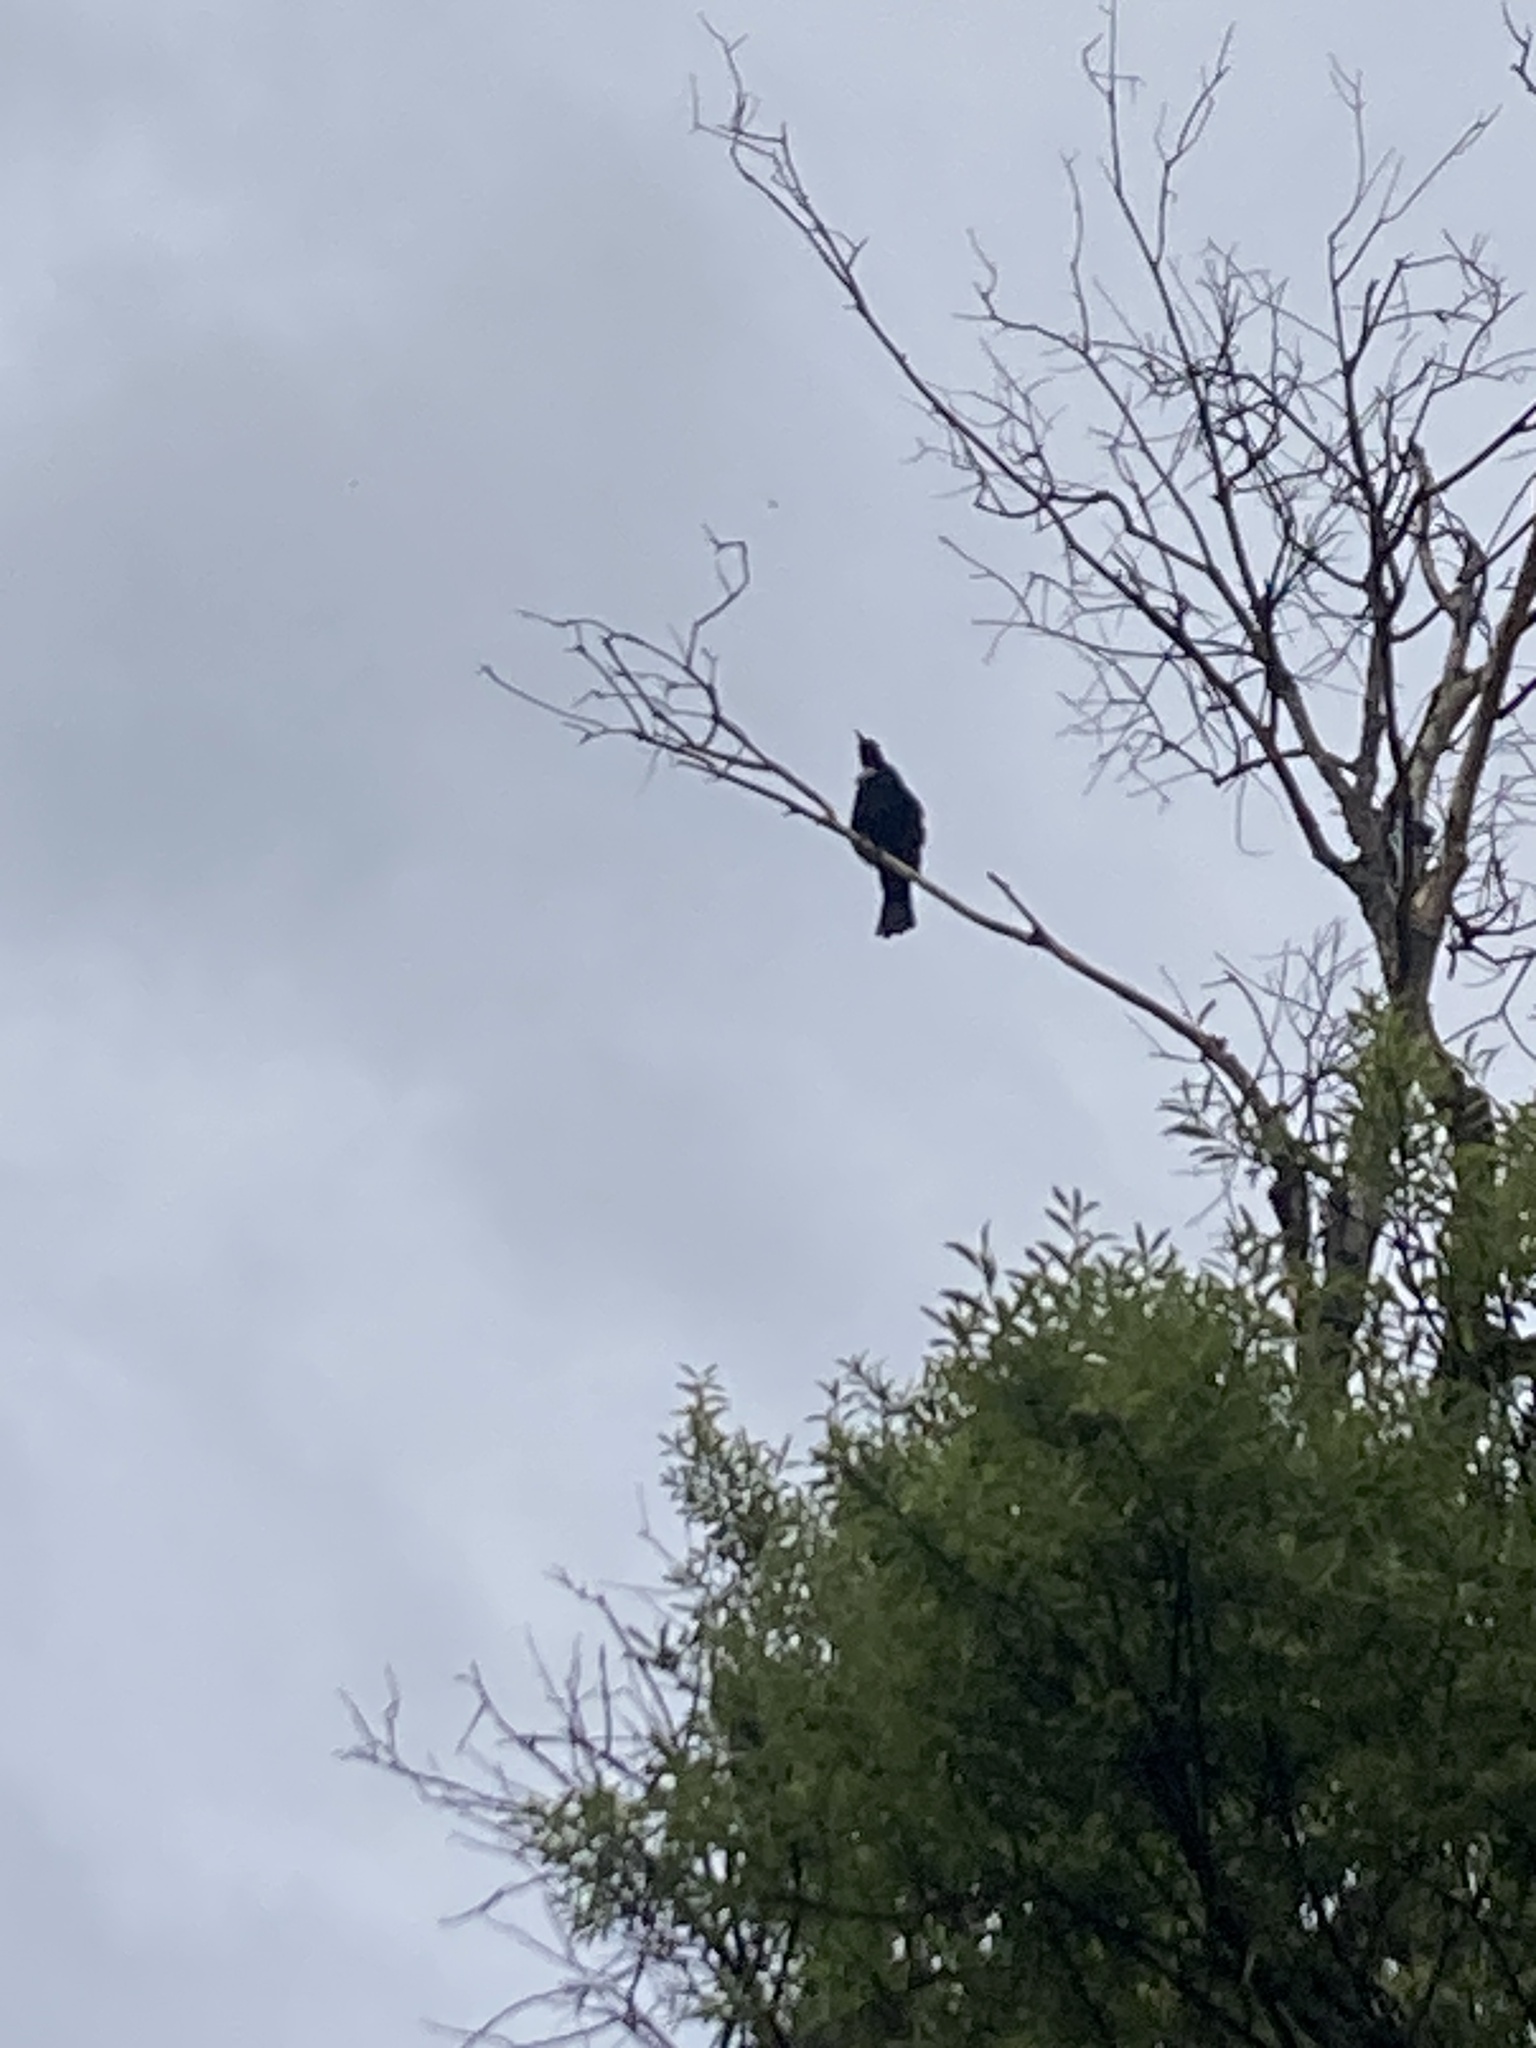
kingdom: Animalia
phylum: Chordata
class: Aves
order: Passeriformes
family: Meliphagidae
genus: Prosthemadera
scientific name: Prosthemadera novaeseelandiae
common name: Tui
